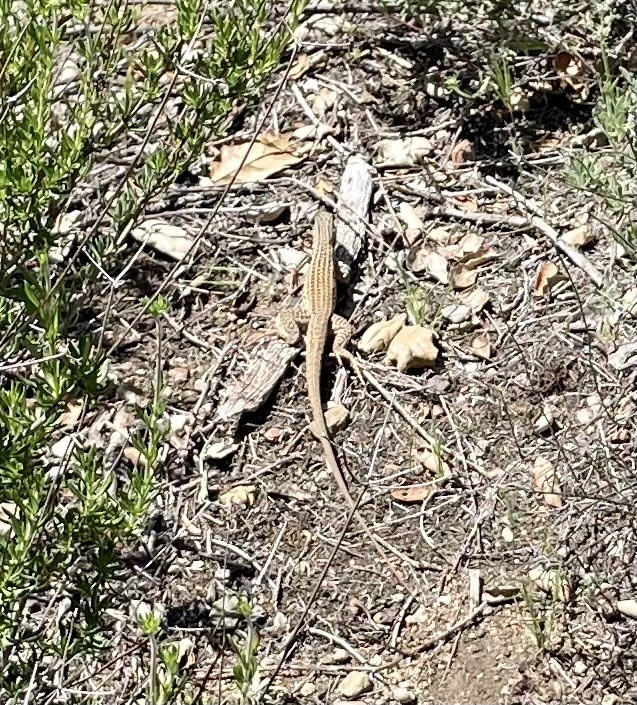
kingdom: Animalia
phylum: Chordata
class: Squamata
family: Teiidae
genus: Aspidoscelis
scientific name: Aspidoscelis tigris
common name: Tiger whiptail
